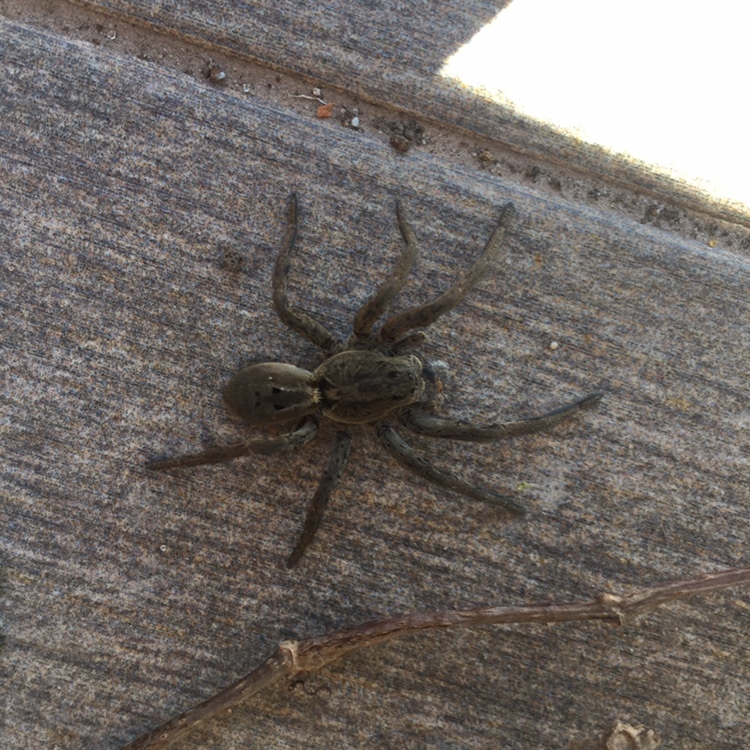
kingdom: Animalia
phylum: Arthropoda
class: Arachnida
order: Araneae
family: Lycosidae
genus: Lycosa
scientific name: Lycosa erythrognatha
